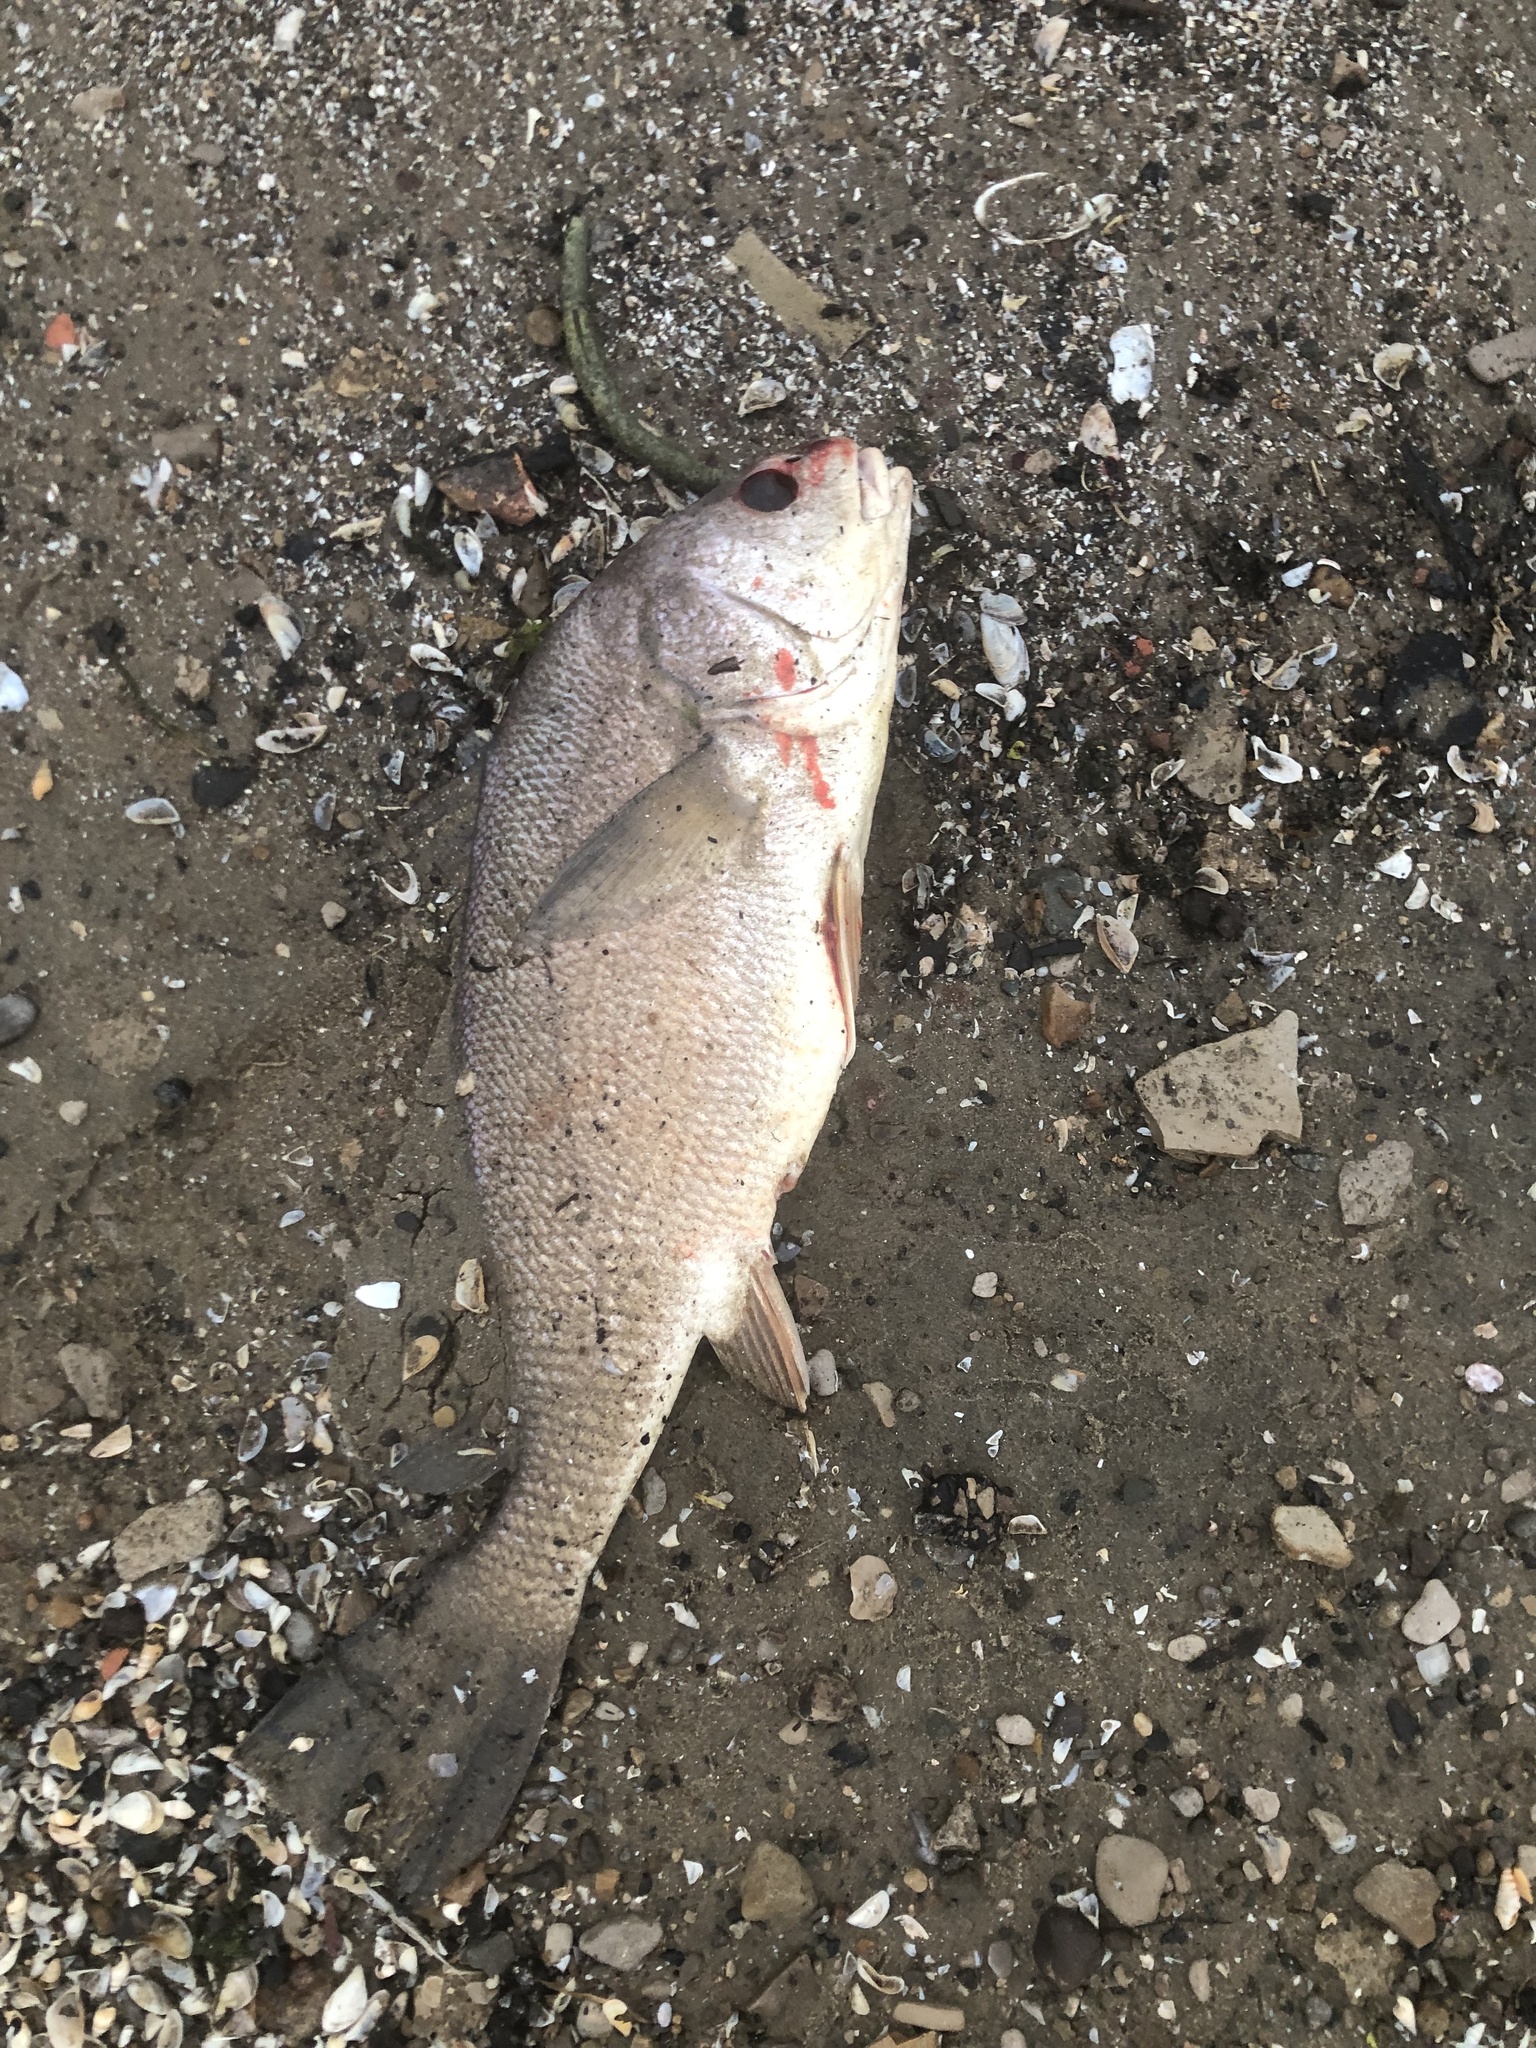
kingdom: Animalia
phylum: Chordata
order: Perciformes
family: Sciaenidae
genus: Aplodinotus
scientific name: Aplodinotus grunniens
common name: Freshwater drum
